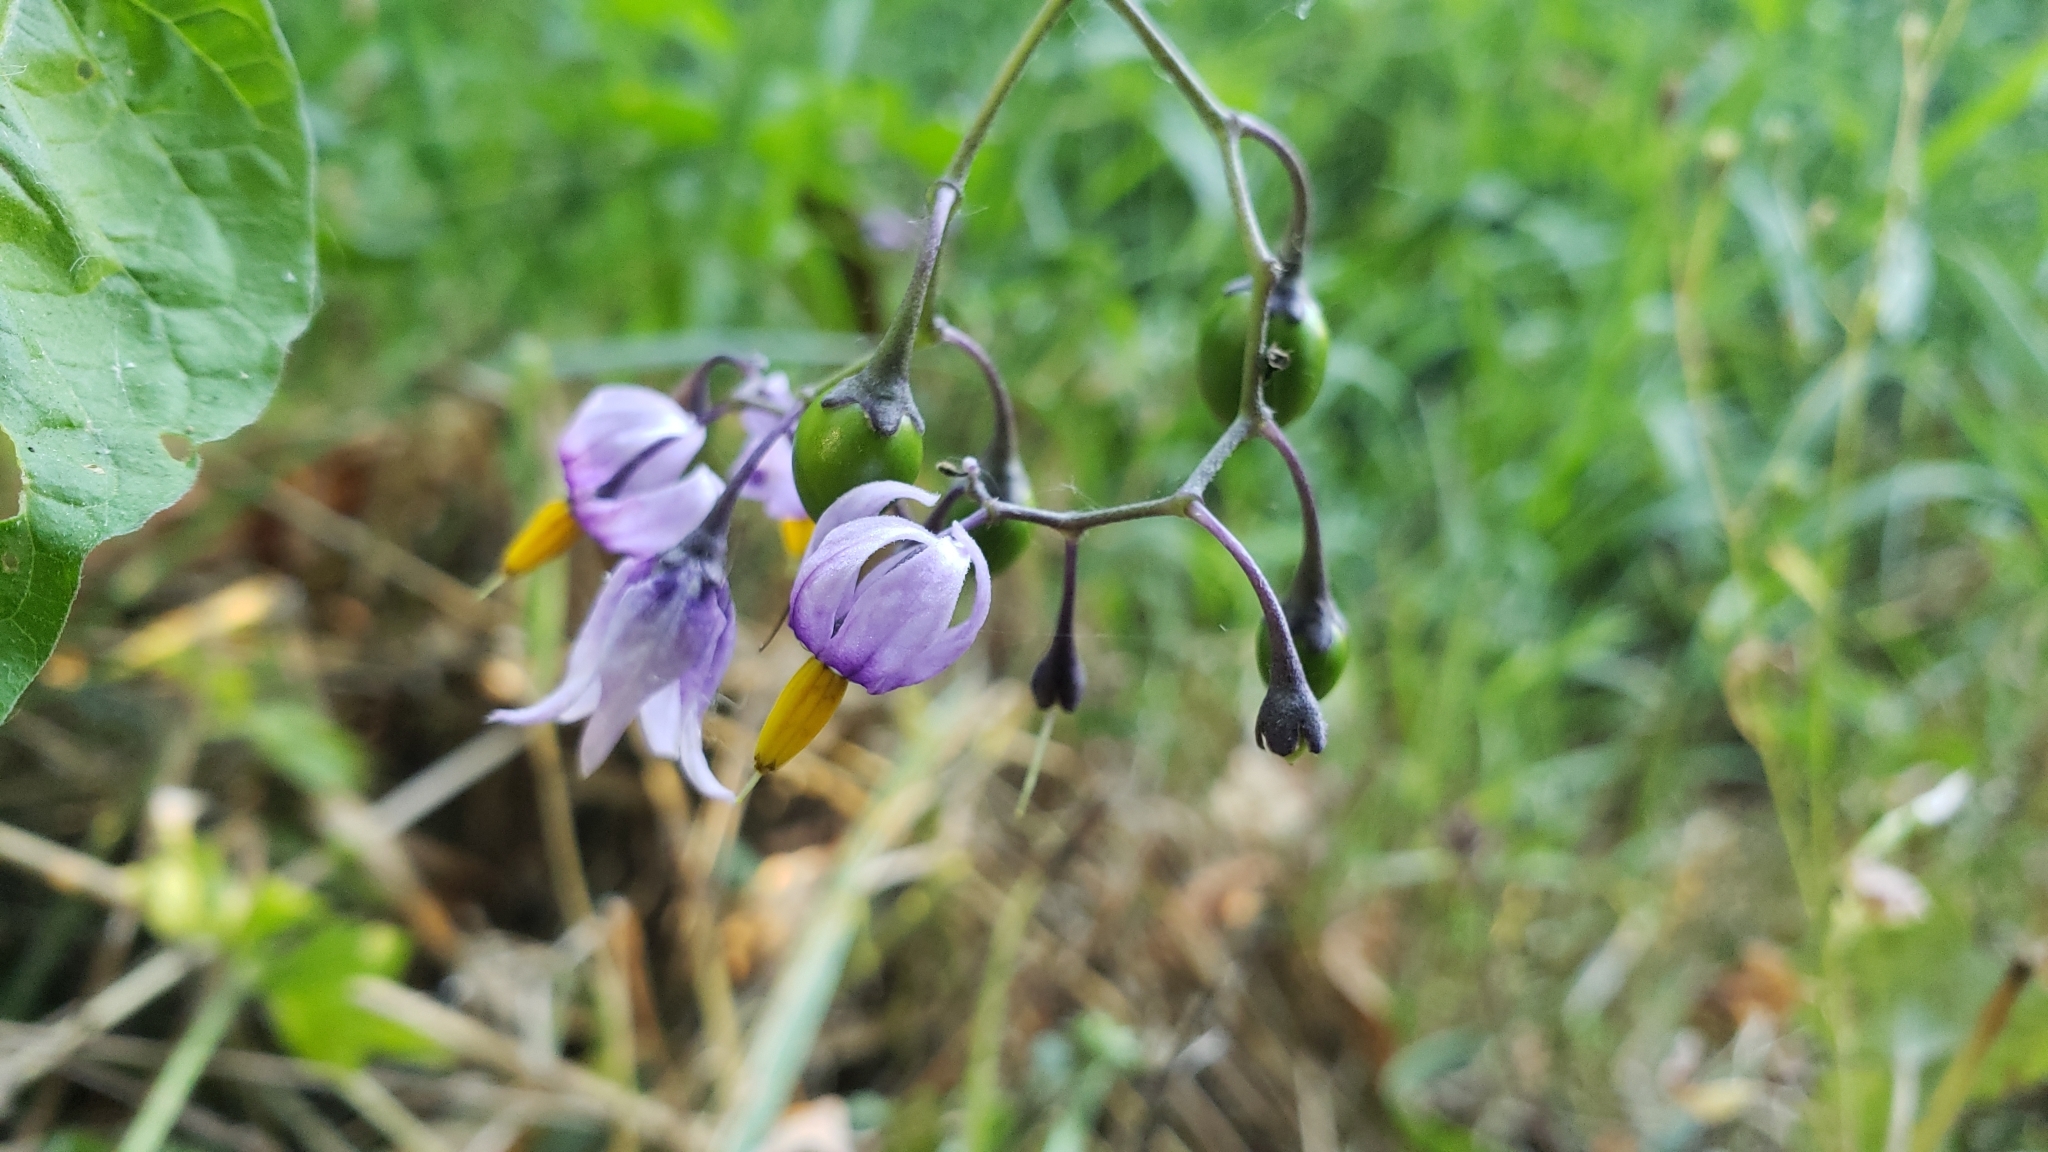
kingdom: Plantae
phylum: Tracheophyta
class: Magnoliopsida
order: Solanales
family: Solanaceae
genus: Solanum
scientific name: Solanum dulcamara
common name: Climbing nightshade
